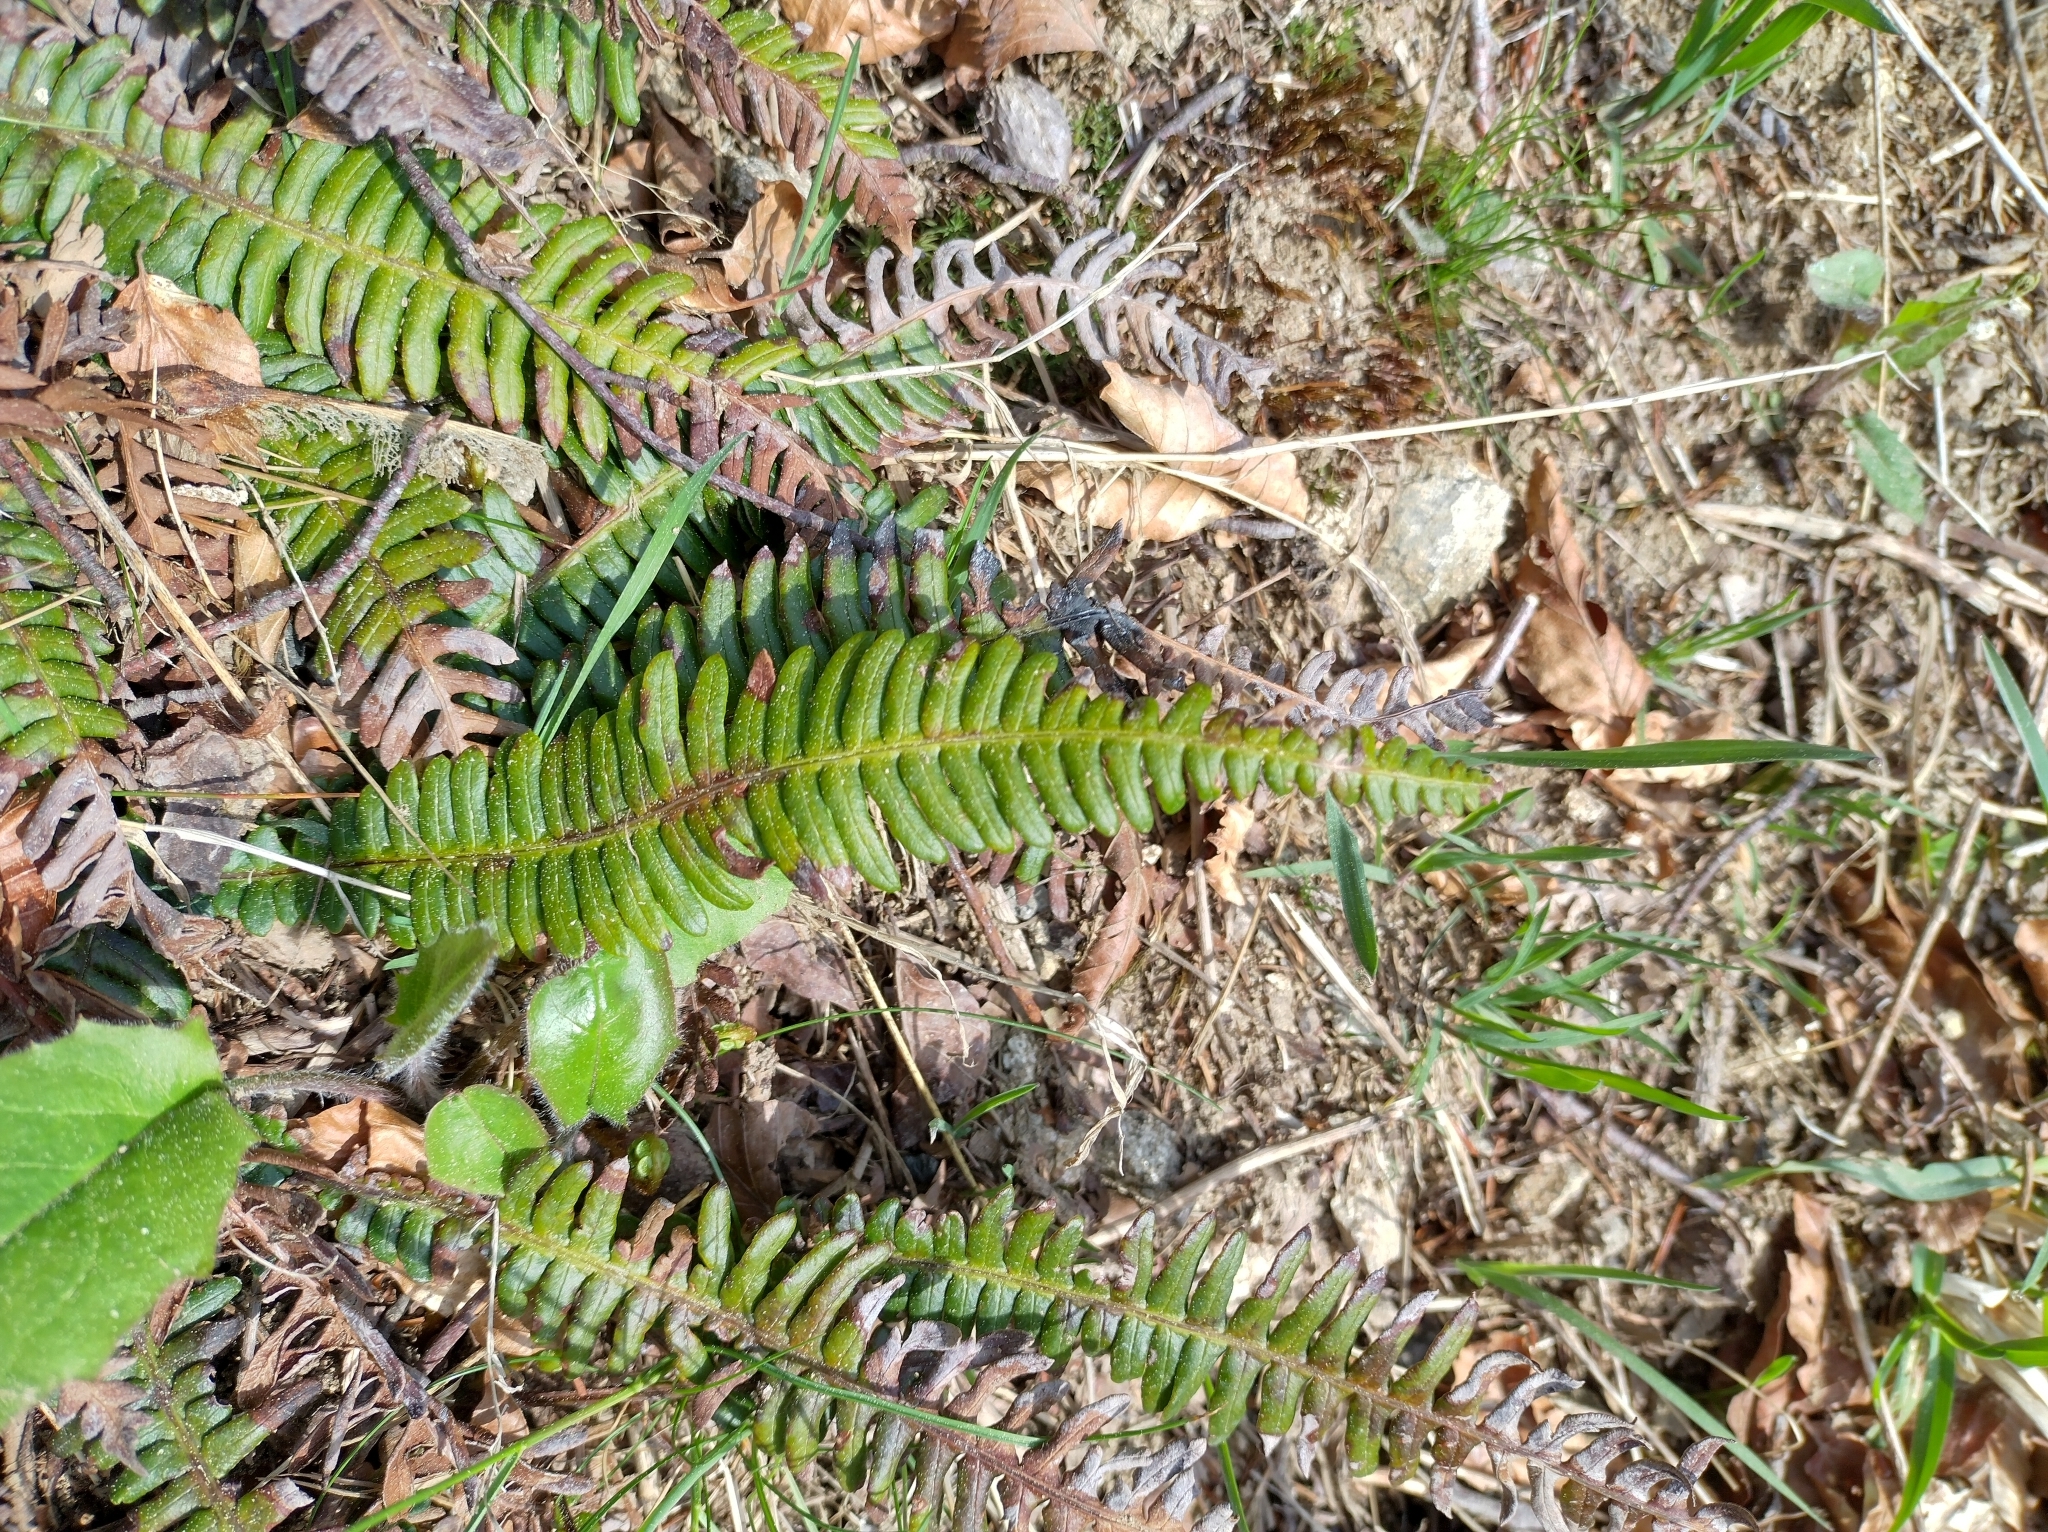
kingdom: Plantae
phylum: Tracheophyta
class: Polypodiopsida
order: Polypodiales
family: Blechnaceae
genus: Struthiopteris
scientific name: Struthiopteris spicant
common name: Deer fern
